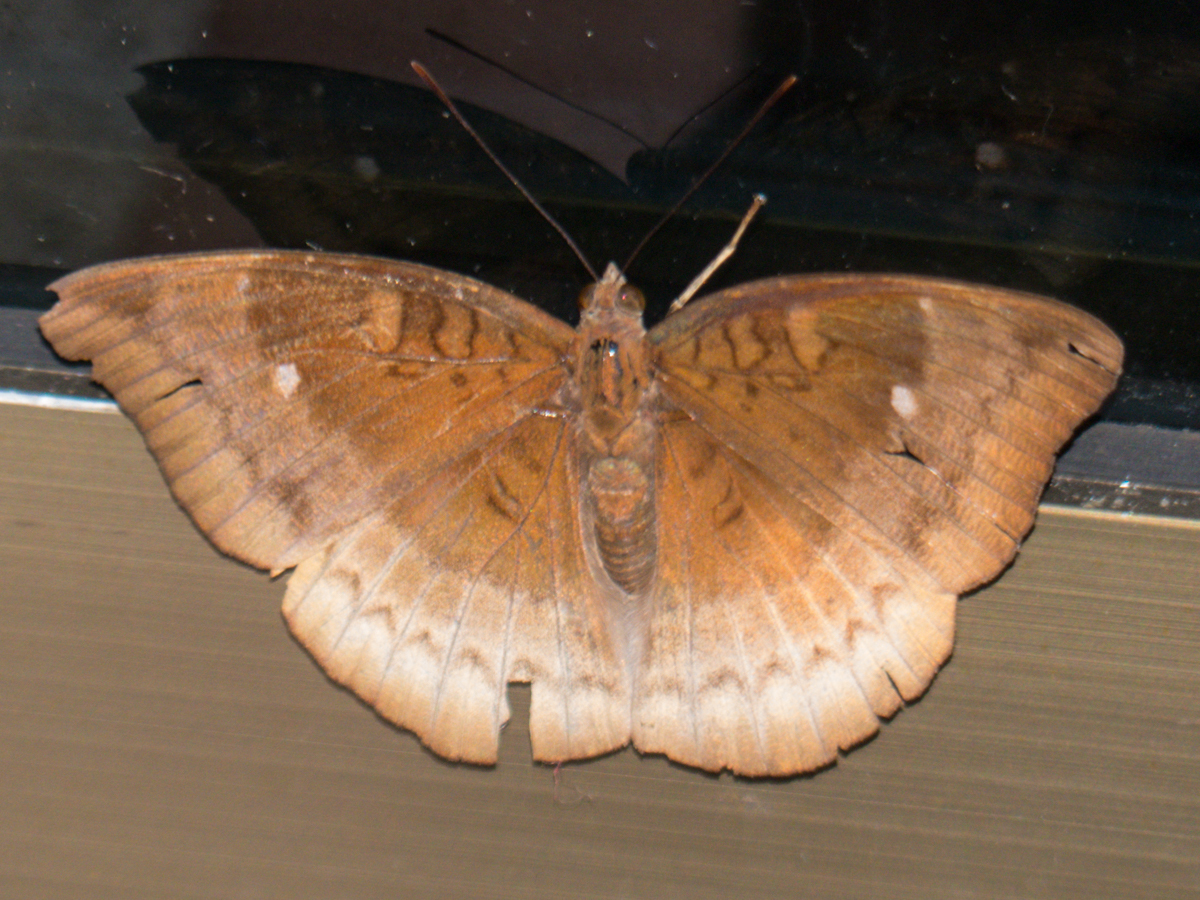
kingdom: Animalia
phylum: Arthropoda
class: Insecta
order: Lepidoptera
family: Nymphalidae
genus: Euthalia
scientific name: Euthalia monina
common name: Powdered baron
